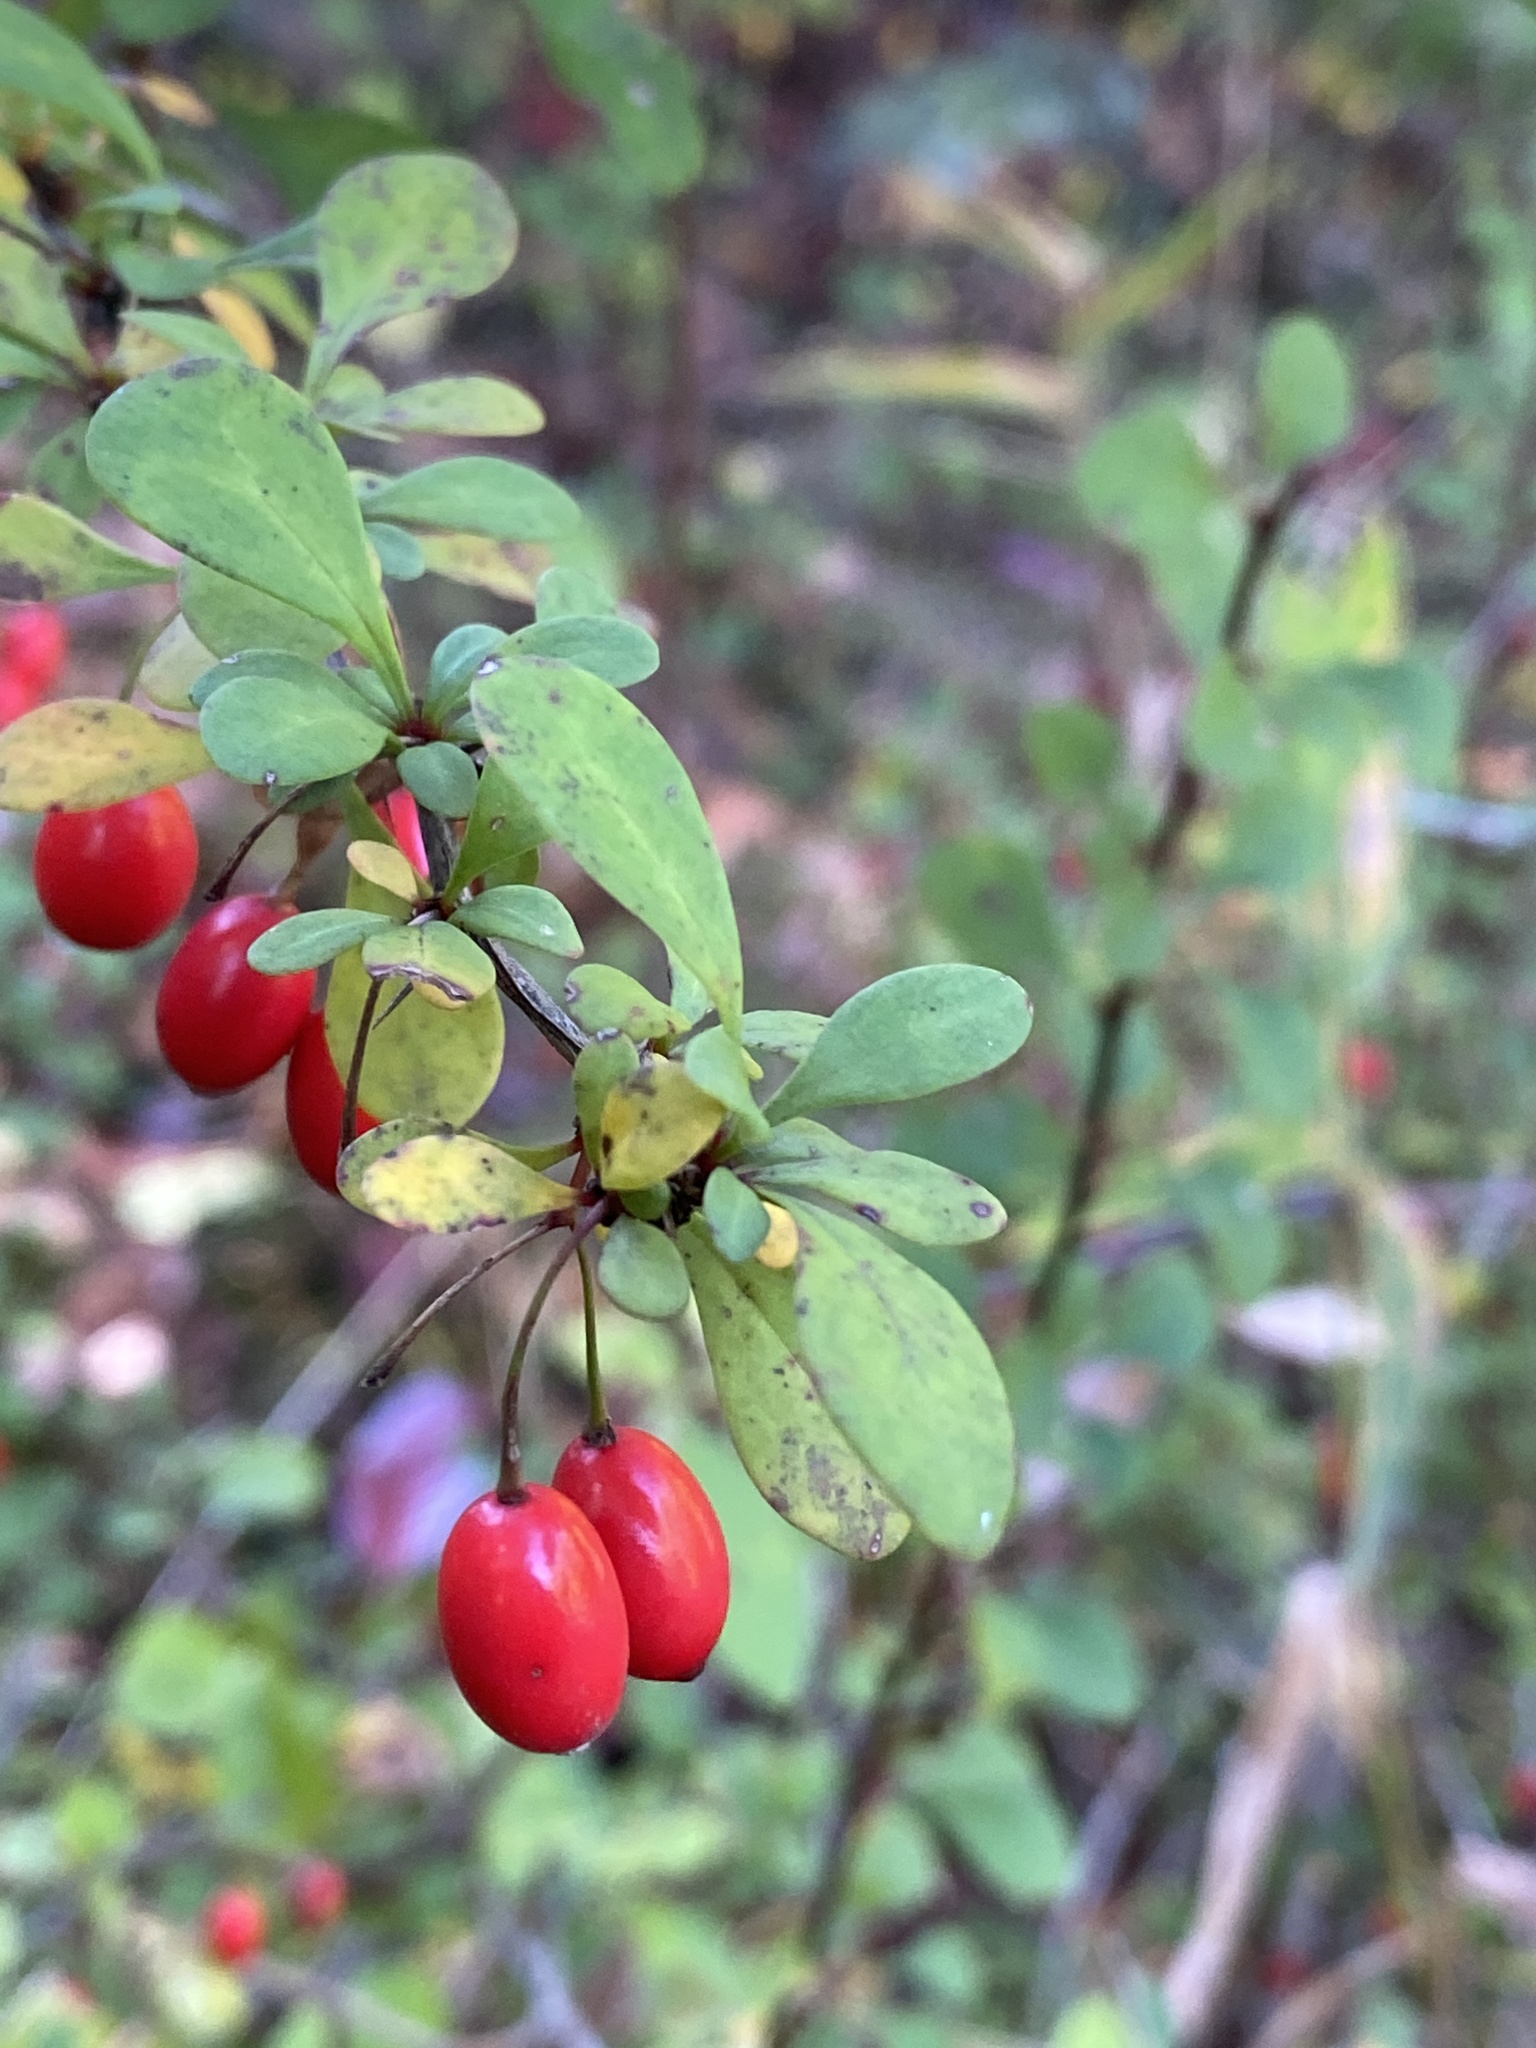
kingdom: Plantae
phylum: Tracheophyta
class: Magnoliopsida
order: Ranunculales
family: Berberidaceae
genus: Berberis
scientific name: Berberis thunbergii
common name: Japanese barberry
